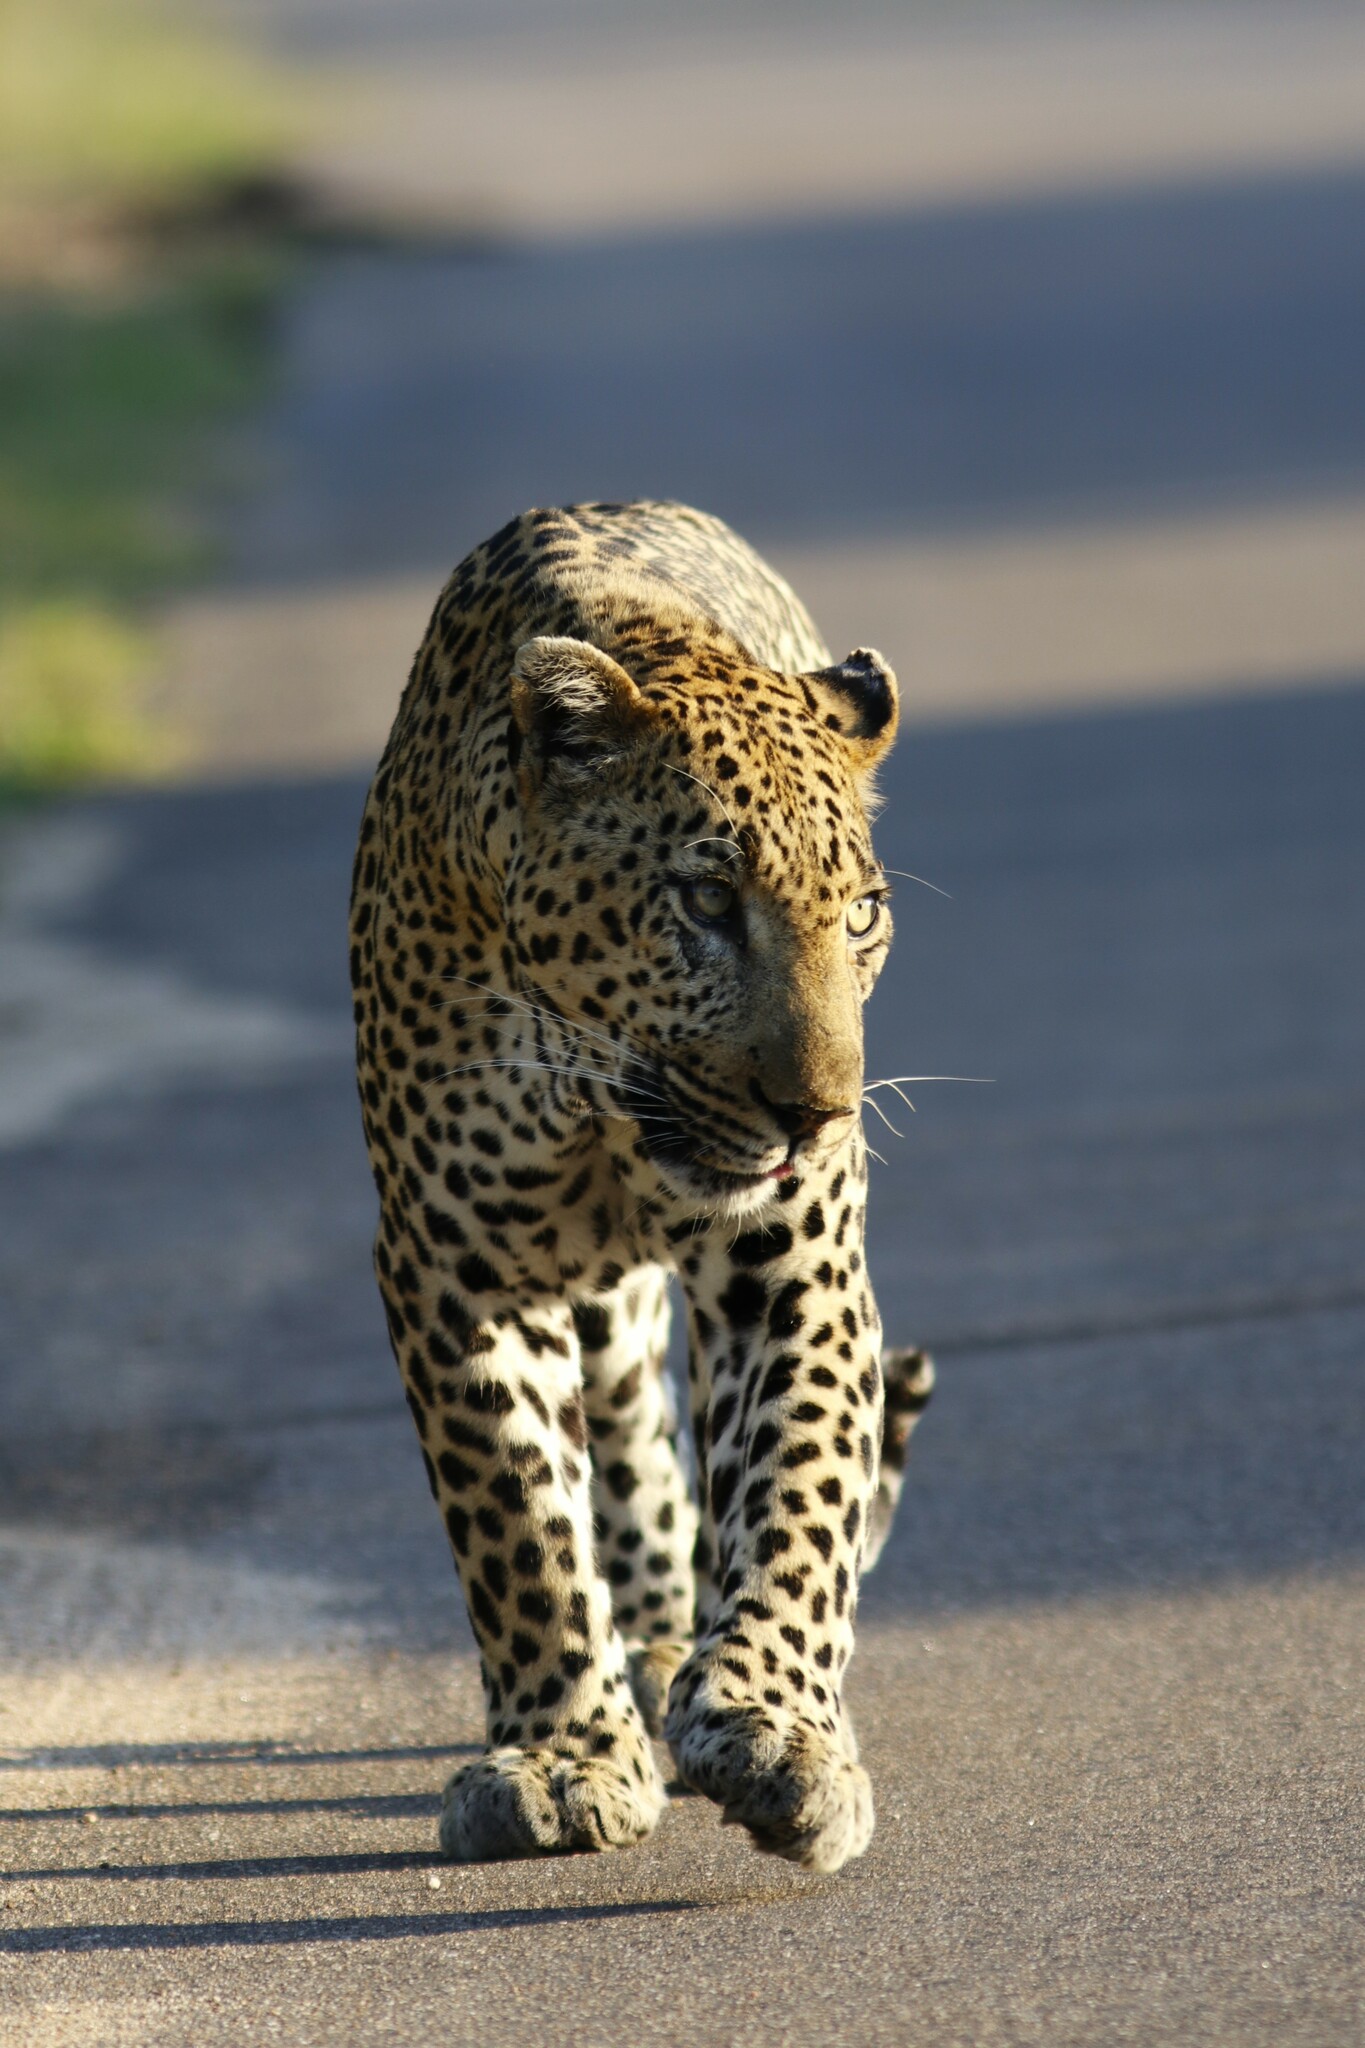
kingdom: Animalia
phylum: Chordata
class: Mammalia
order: Carnivora
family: Felidae
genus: Panthera
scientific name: Panthera pardus
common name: Leopard
